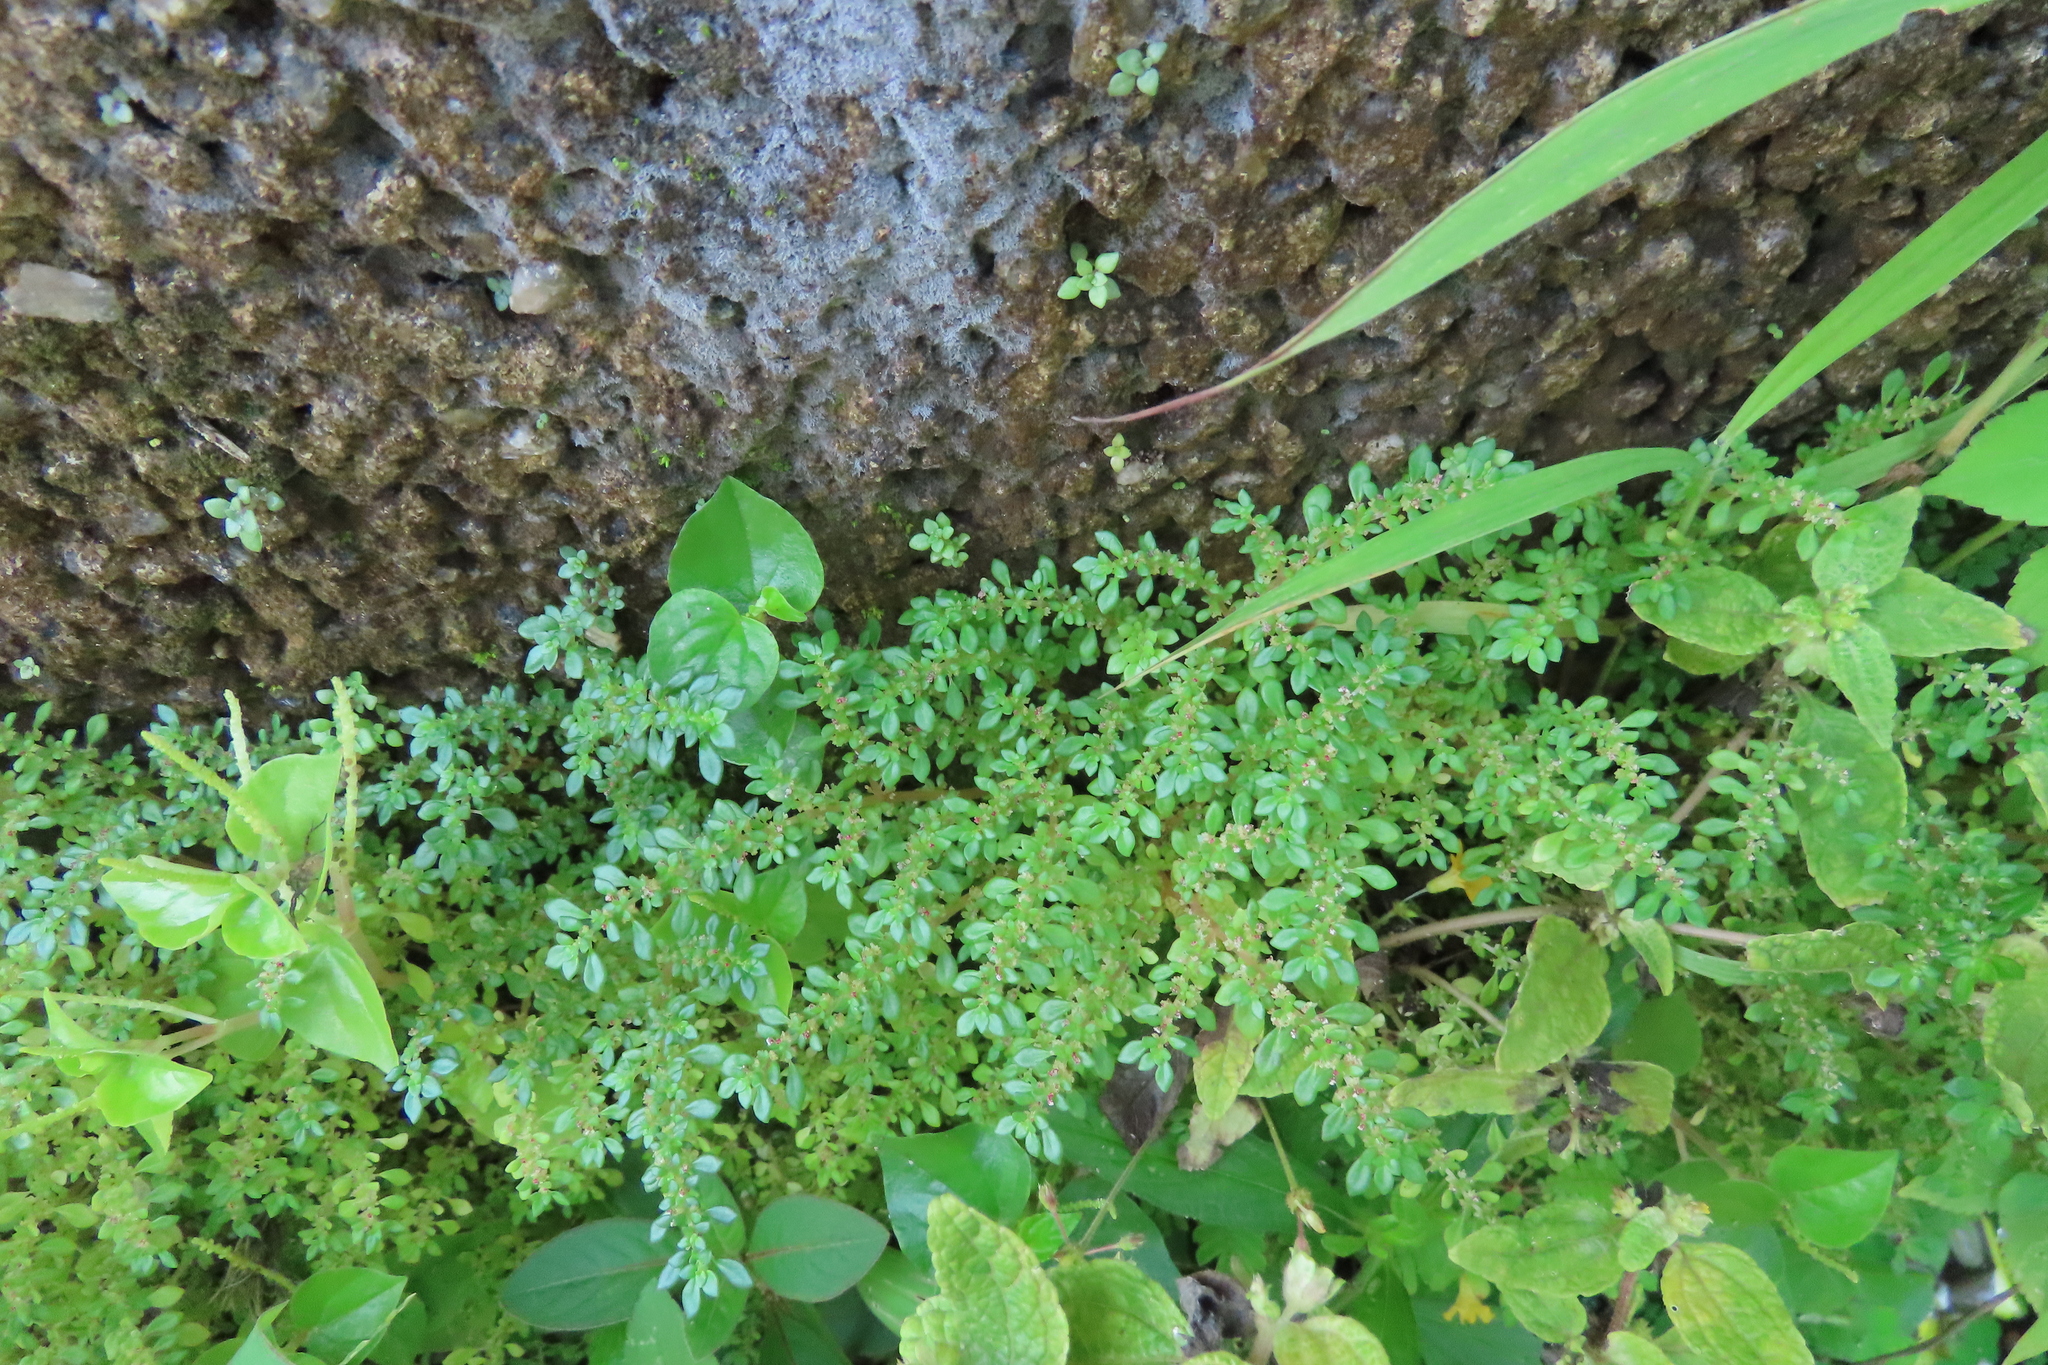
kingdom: Plantae
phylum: Tracheophyta
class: Magnoliopsida
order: Rosales
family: Urticaceae
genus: Pilea
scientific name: Pilea microphylla
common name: Artillery-plant
